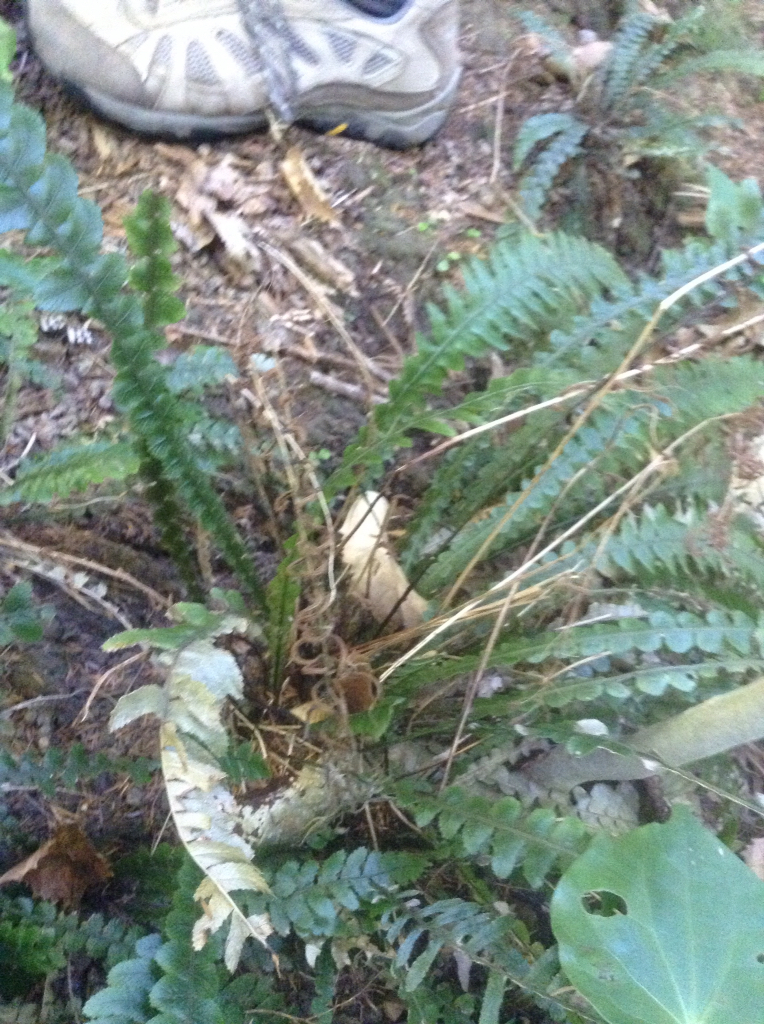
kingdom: Plantae
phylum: Tracheophyta
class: Polypodiopsida
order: Polypodiales
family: Blechnaceae
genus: Austroblechnum
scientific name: Austroblechnum lanceolatum
